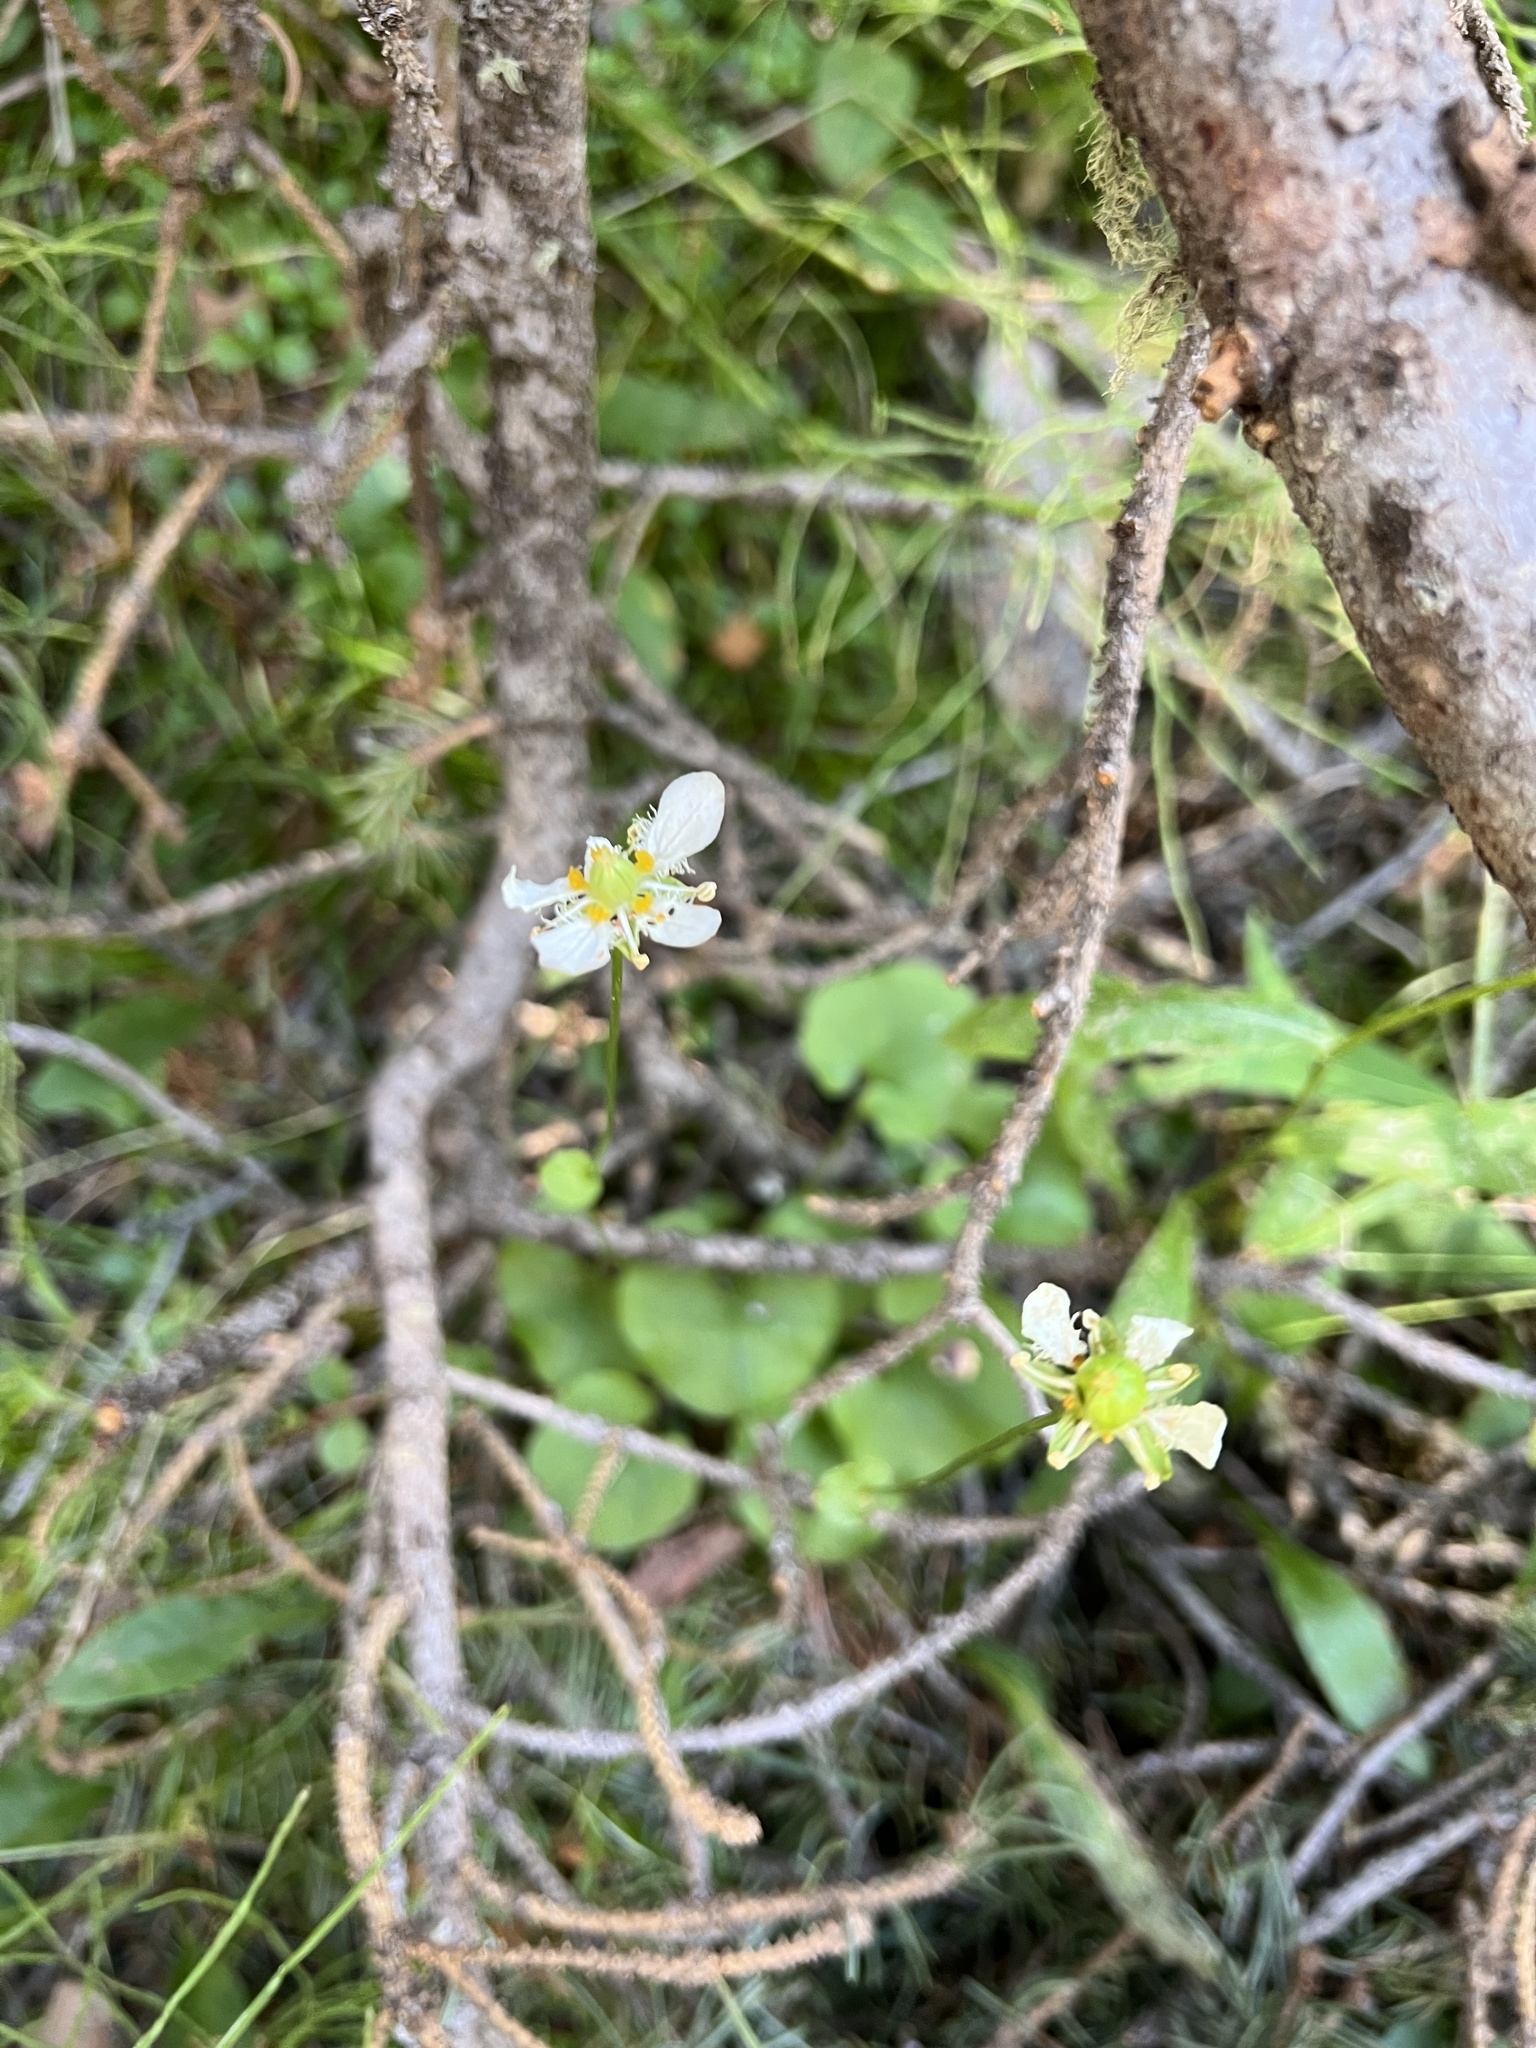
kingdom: Plantae
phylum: Tracheophyta
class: Magnoliopsida
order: Celastrales
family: Parnassiaceae
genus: Parnassia
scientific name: Parnassia fimbriata
